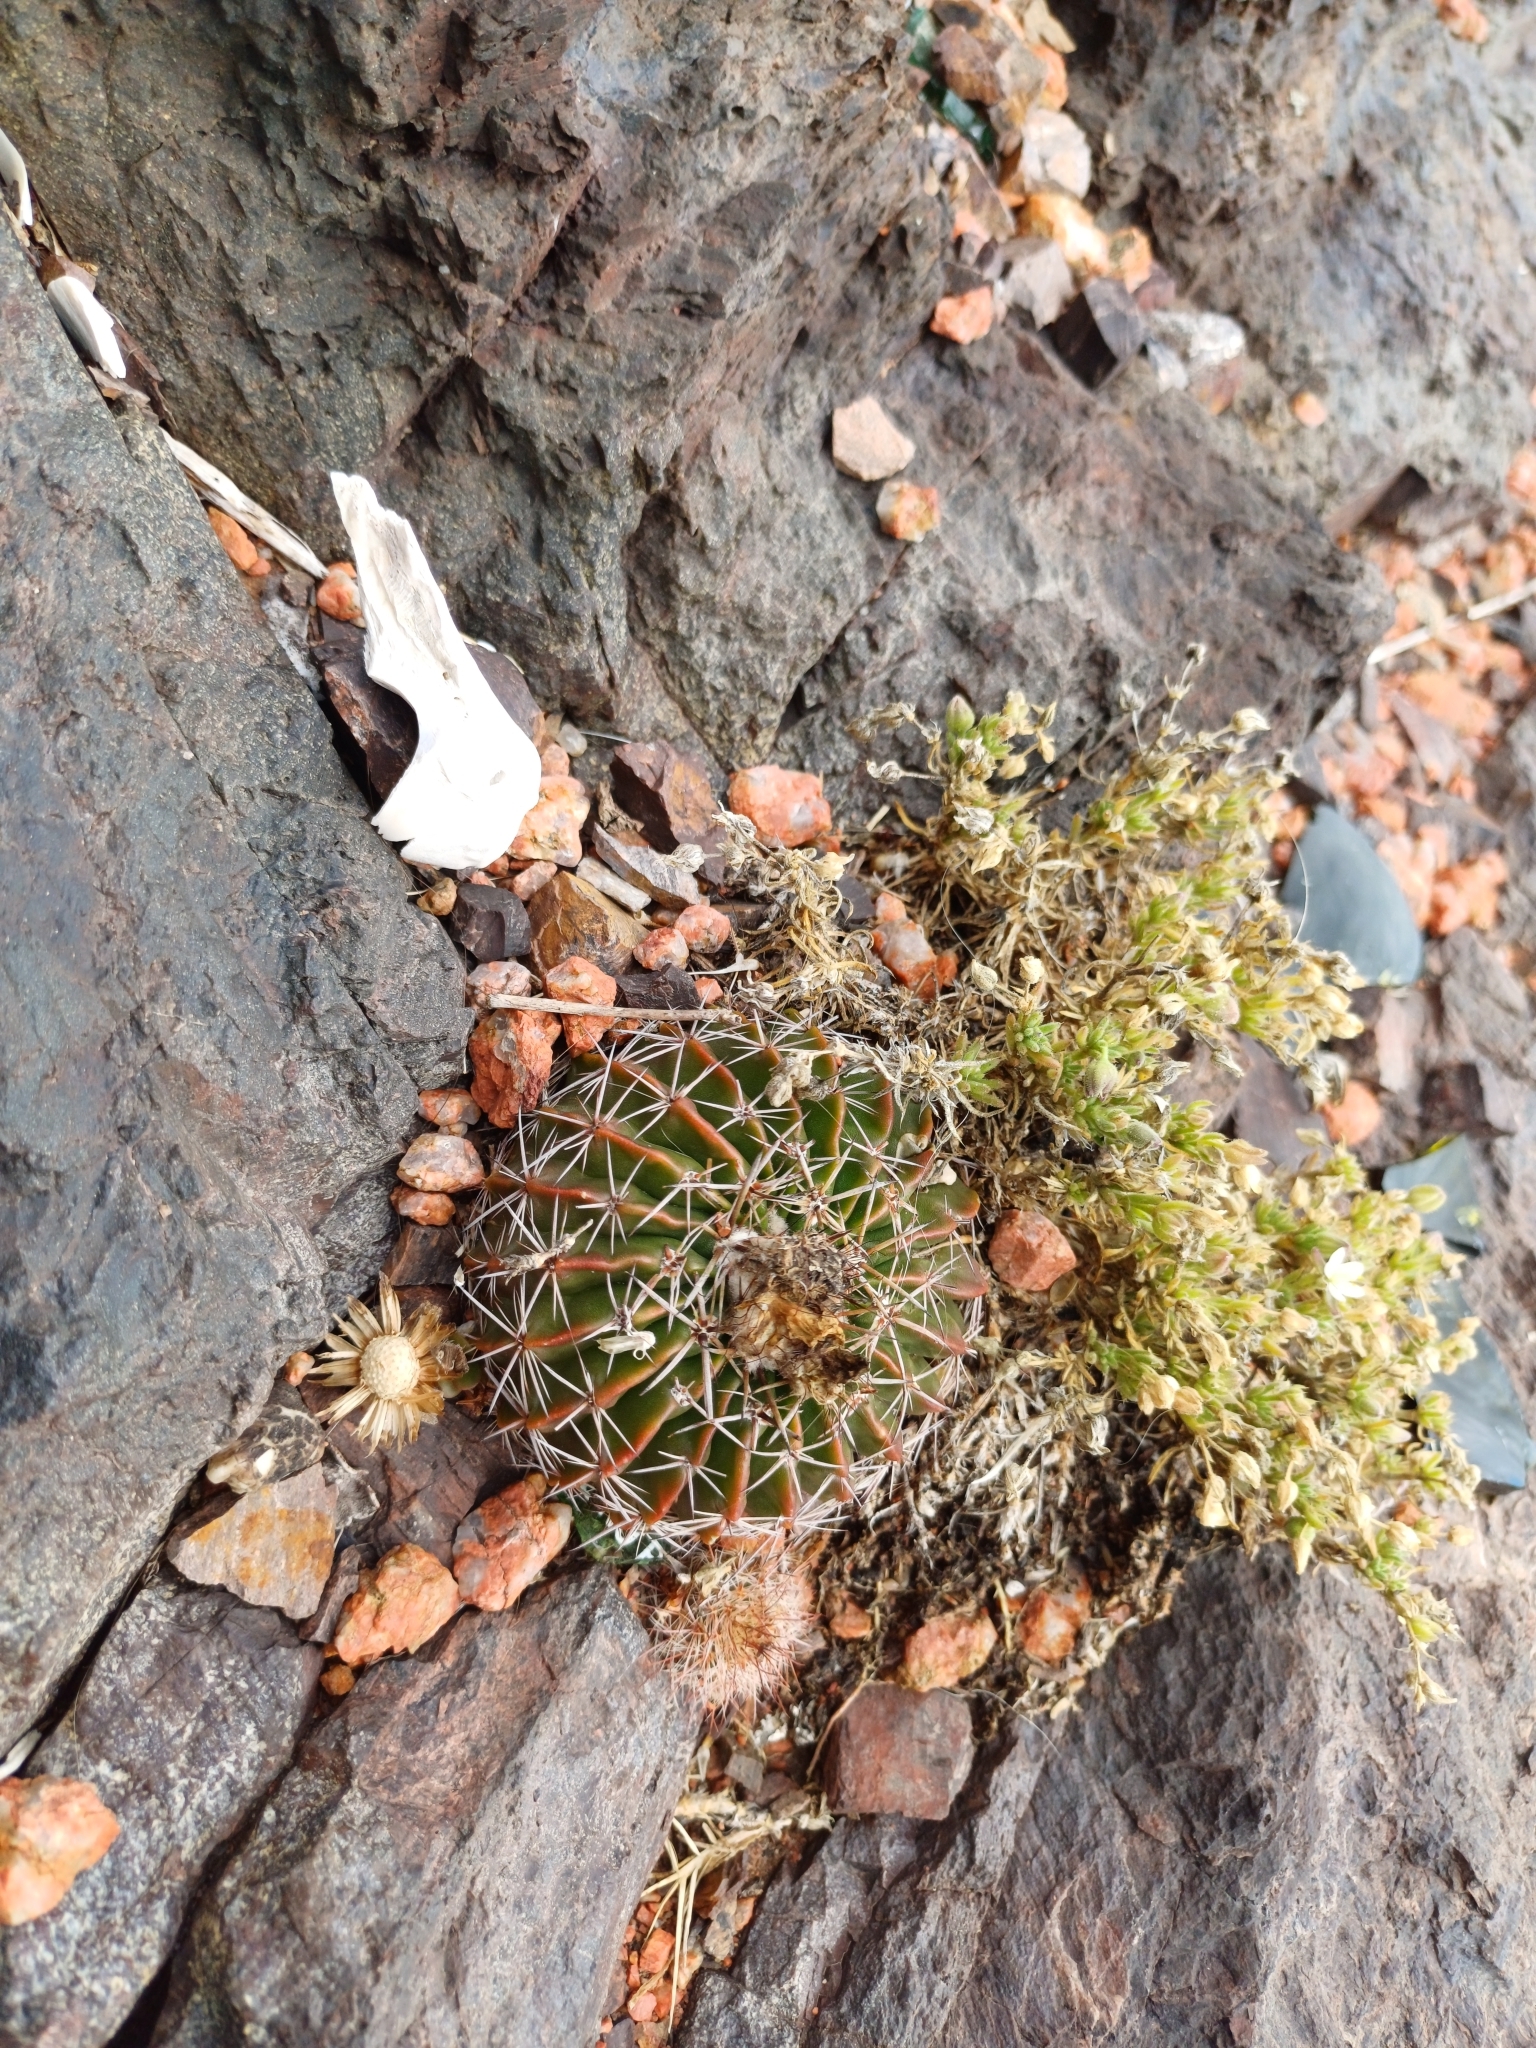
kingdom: Plantae
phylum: Tracheophyta
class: Magnoliopsida
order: Caryophyllales
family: Cactaceae
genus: Parodia
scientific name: Parodia erinacea
